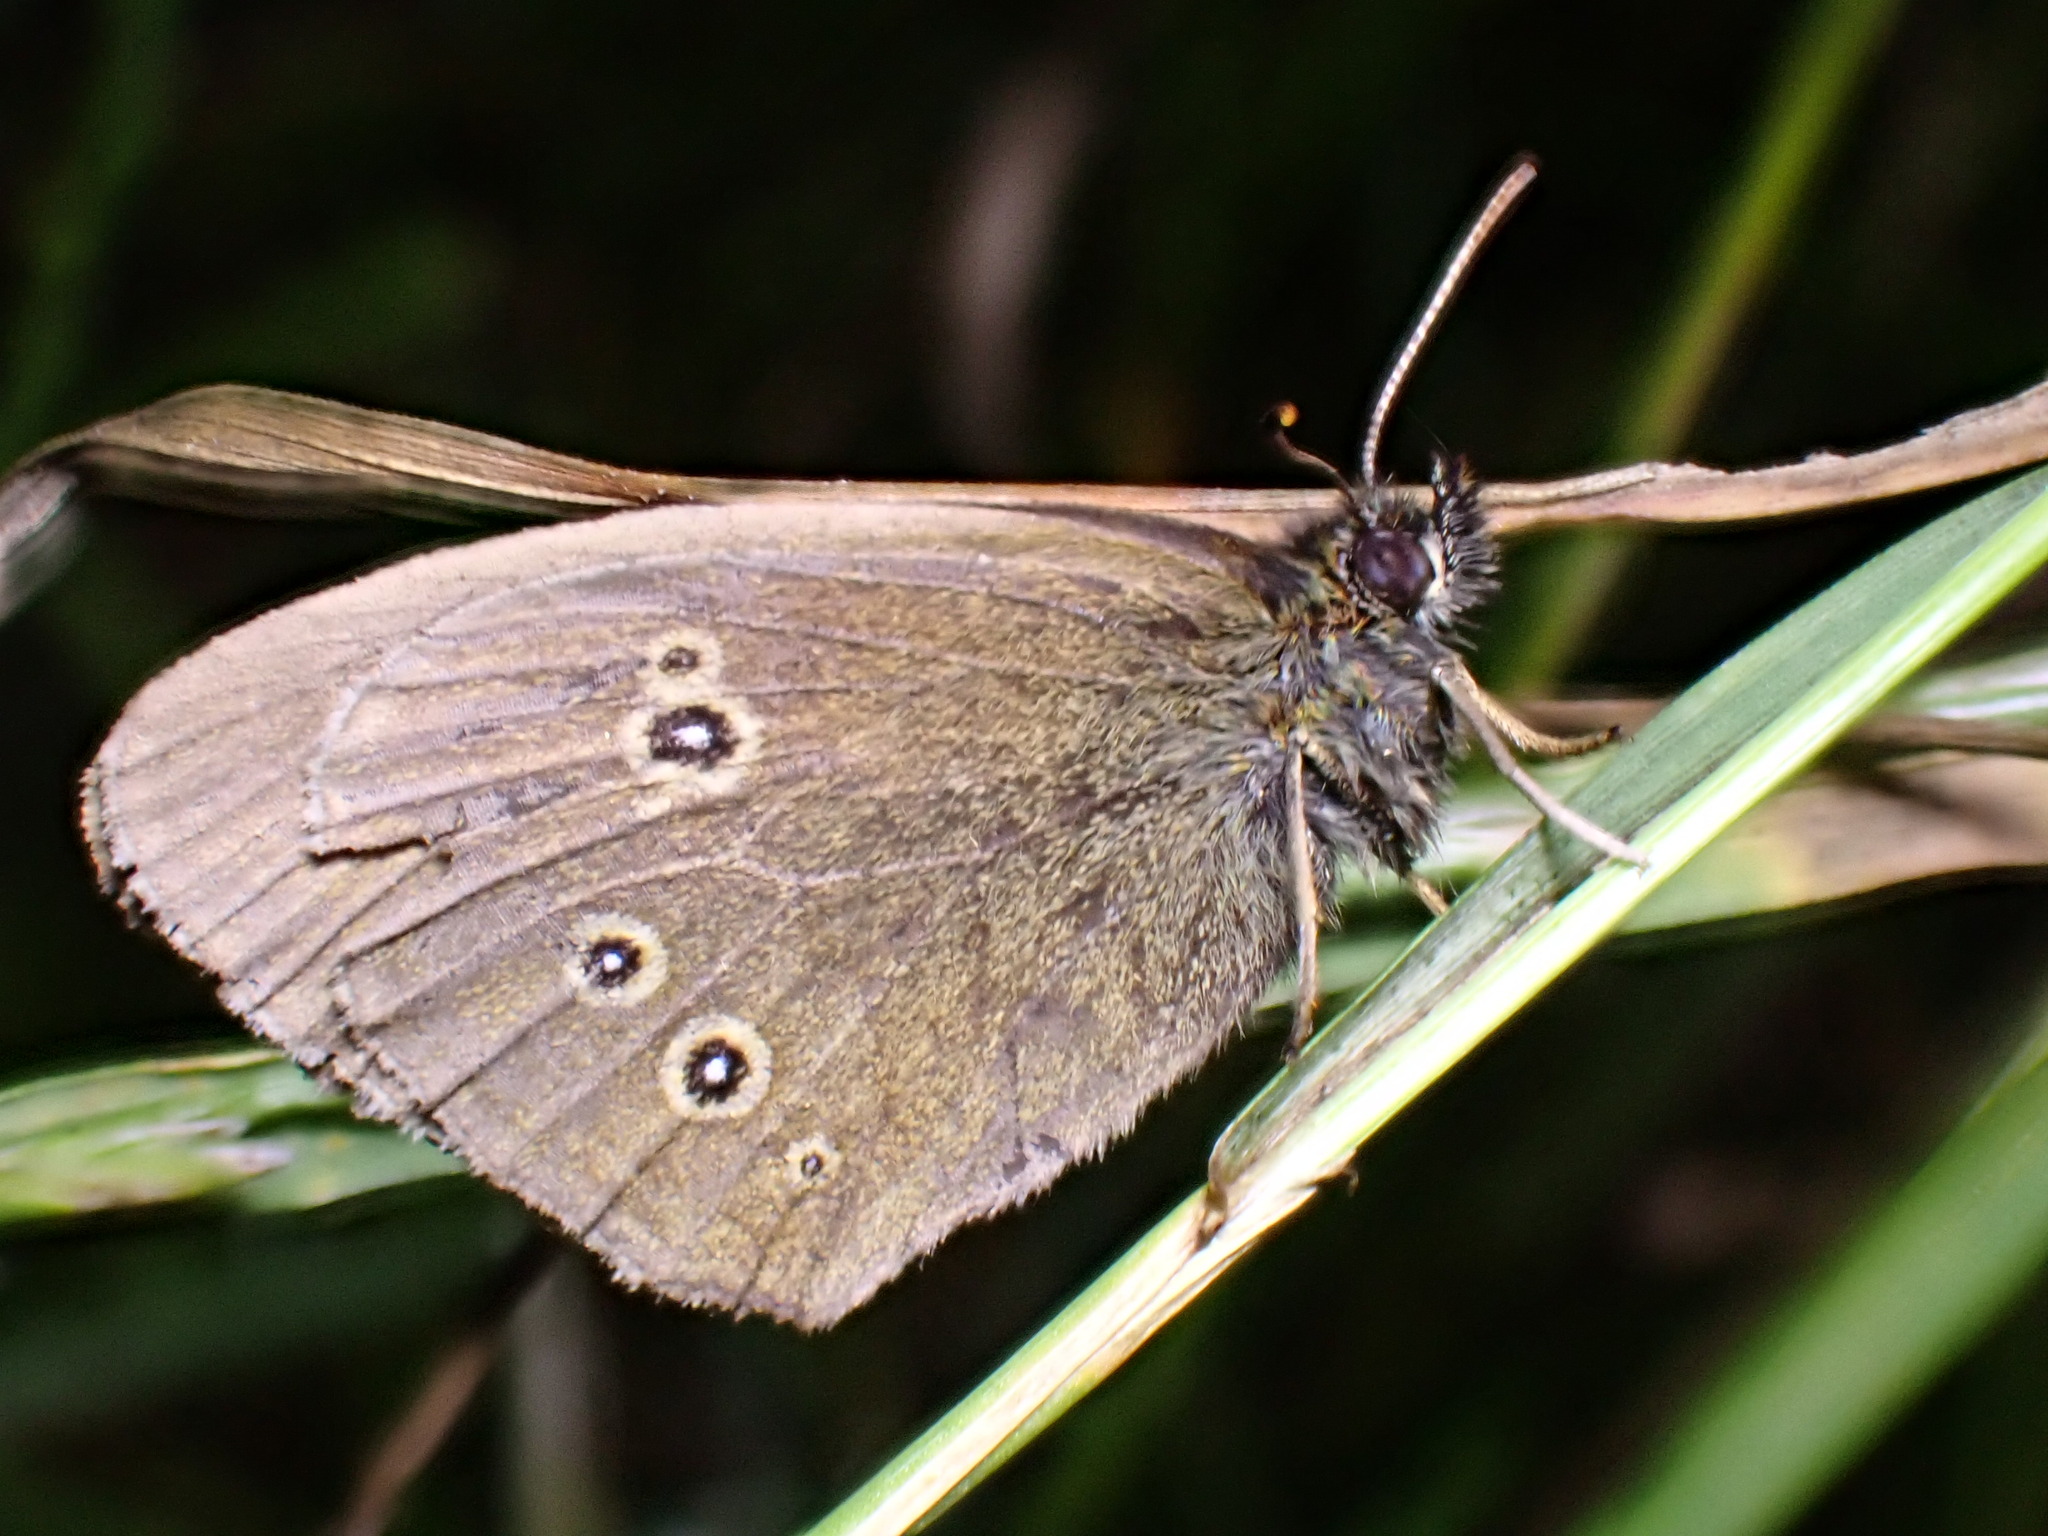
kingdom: Animalia
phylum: Arthropoda
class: Insecta
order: Lepidoptera
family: Nymphalidae
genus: Aphantopus
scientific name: Aphantopus hyperantus
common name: Ringlet
